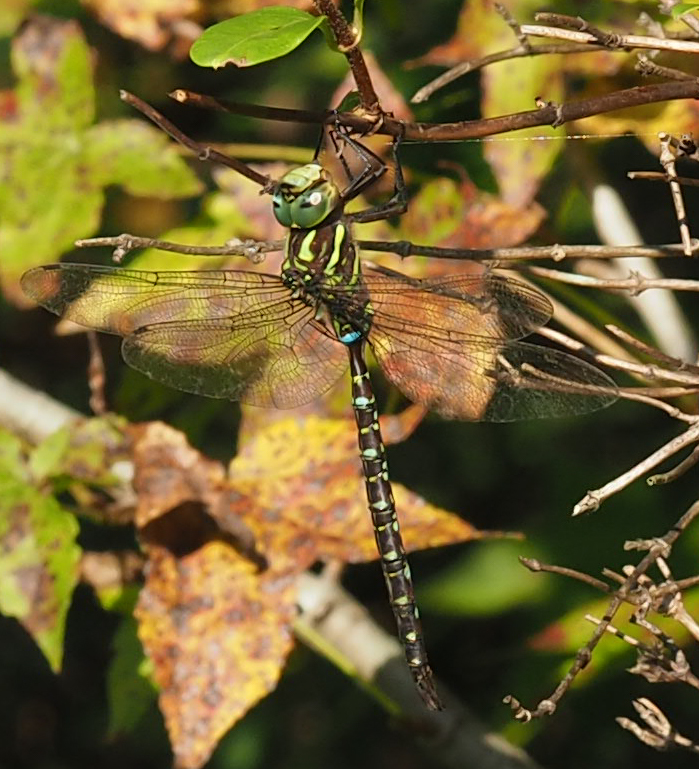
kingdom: Animalia
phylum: Arthropoda
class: Insecta
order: Odonata
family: Aeshnidae
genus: Aeshna
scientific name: Aeshna umbrosa
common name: Shadow darner
